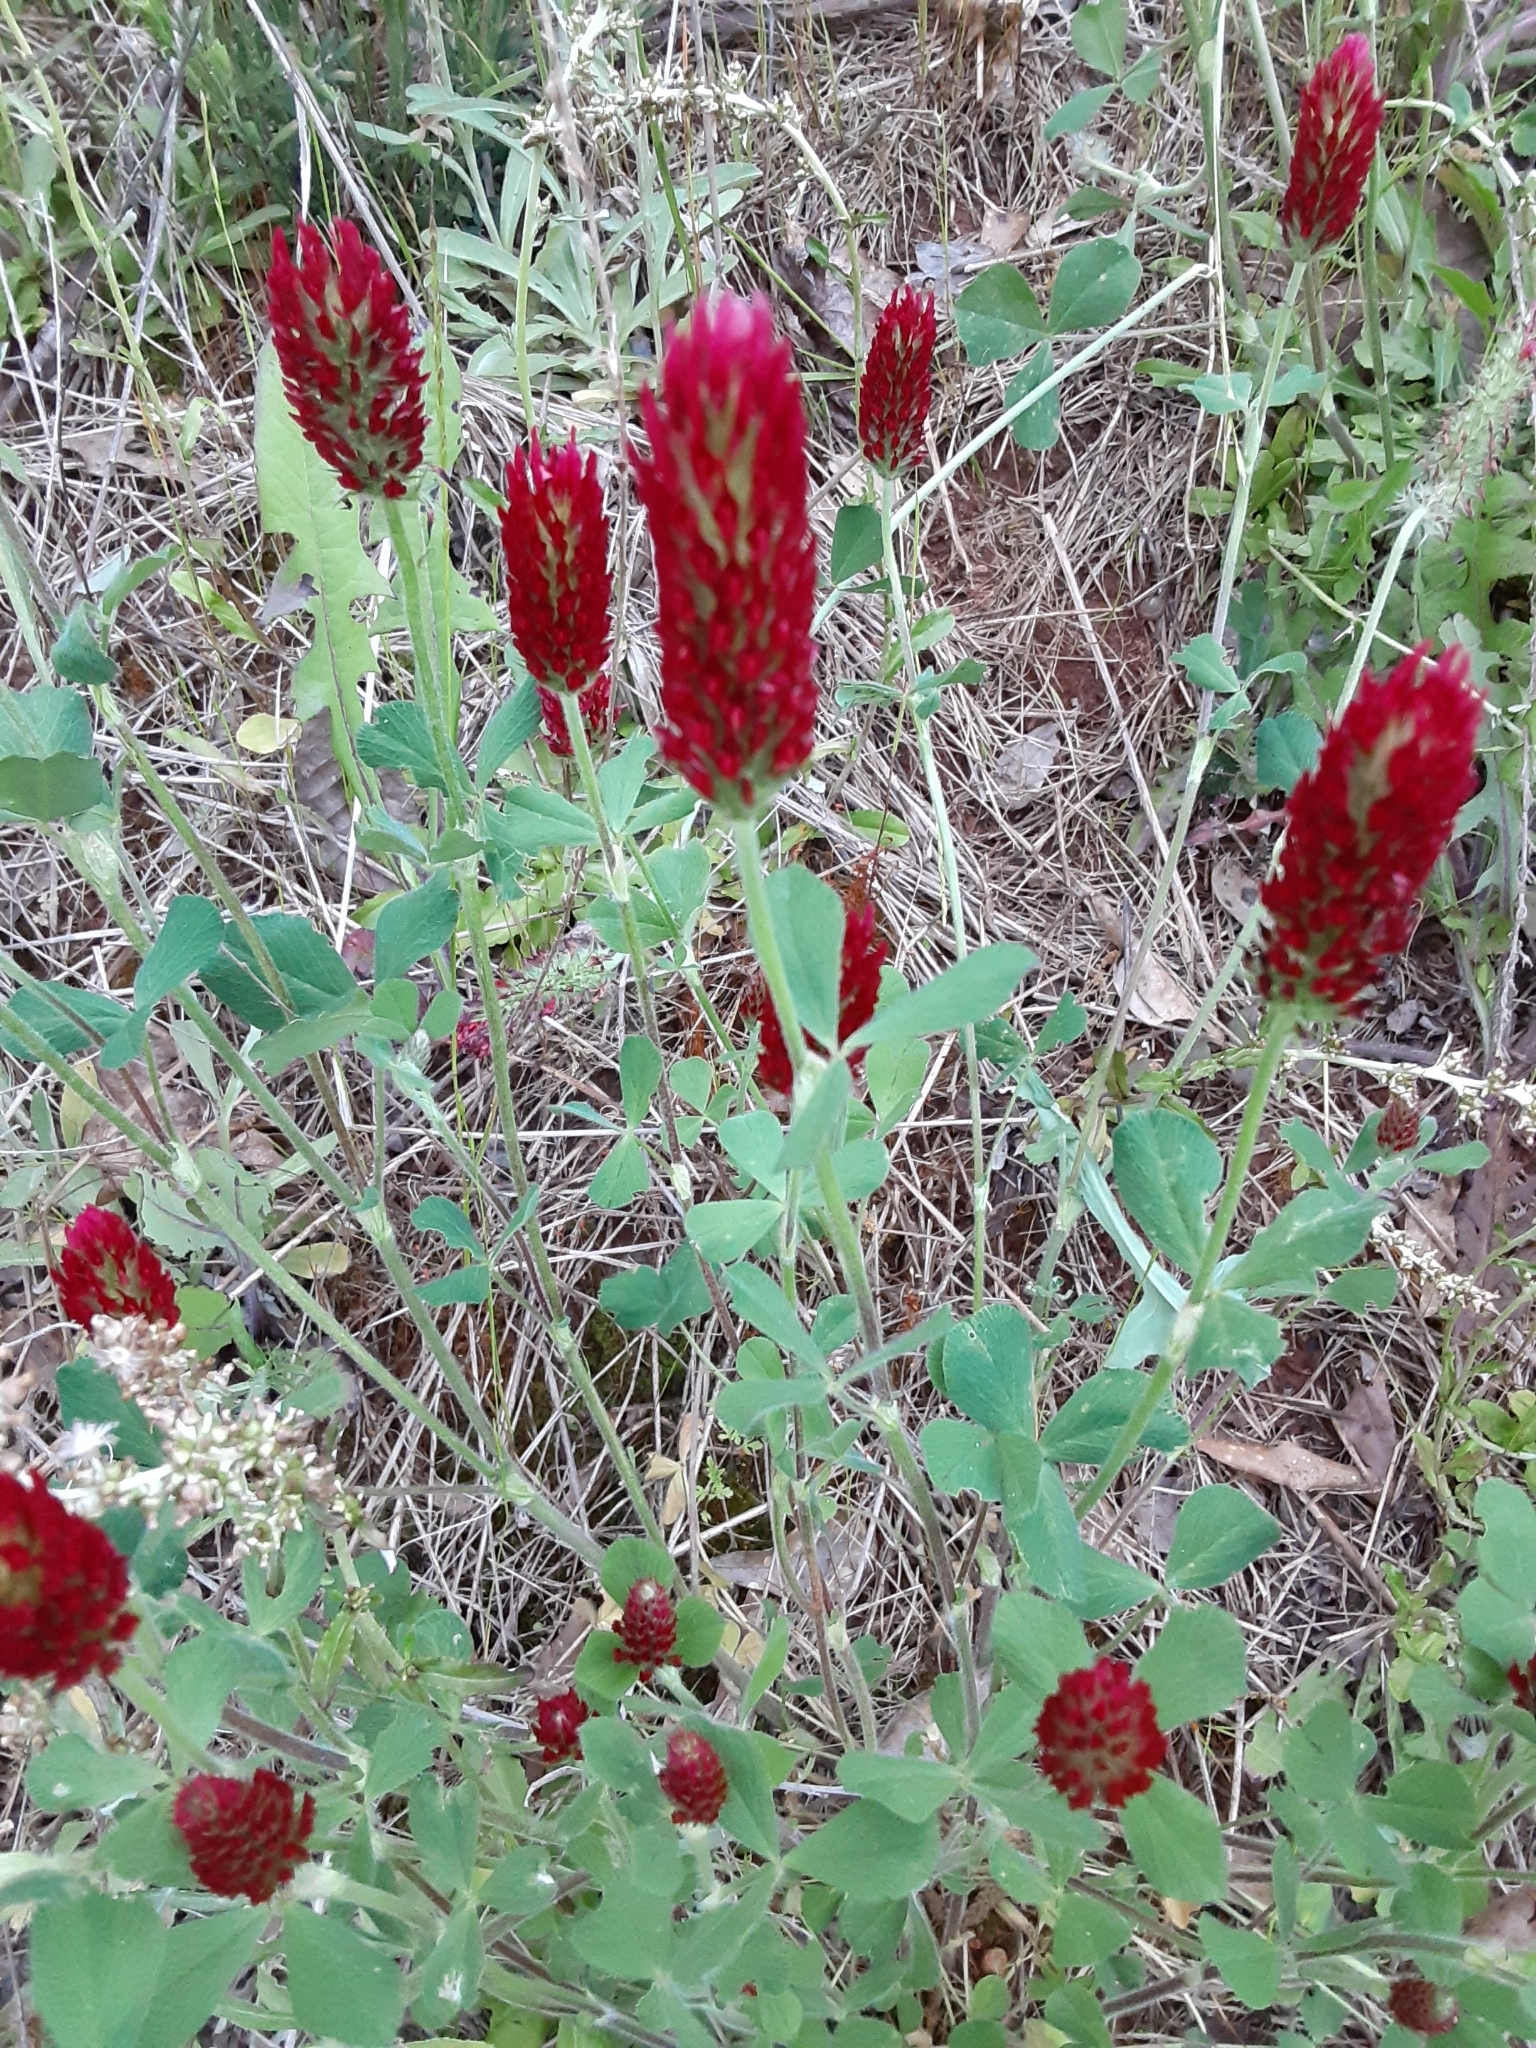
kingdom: Plantae
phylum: Tracheophyta
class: Magnoliopsida
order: Fabales
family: Fabaceae
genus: Trifolium
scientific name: Trifolium incarnatum
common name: Crimson clover
